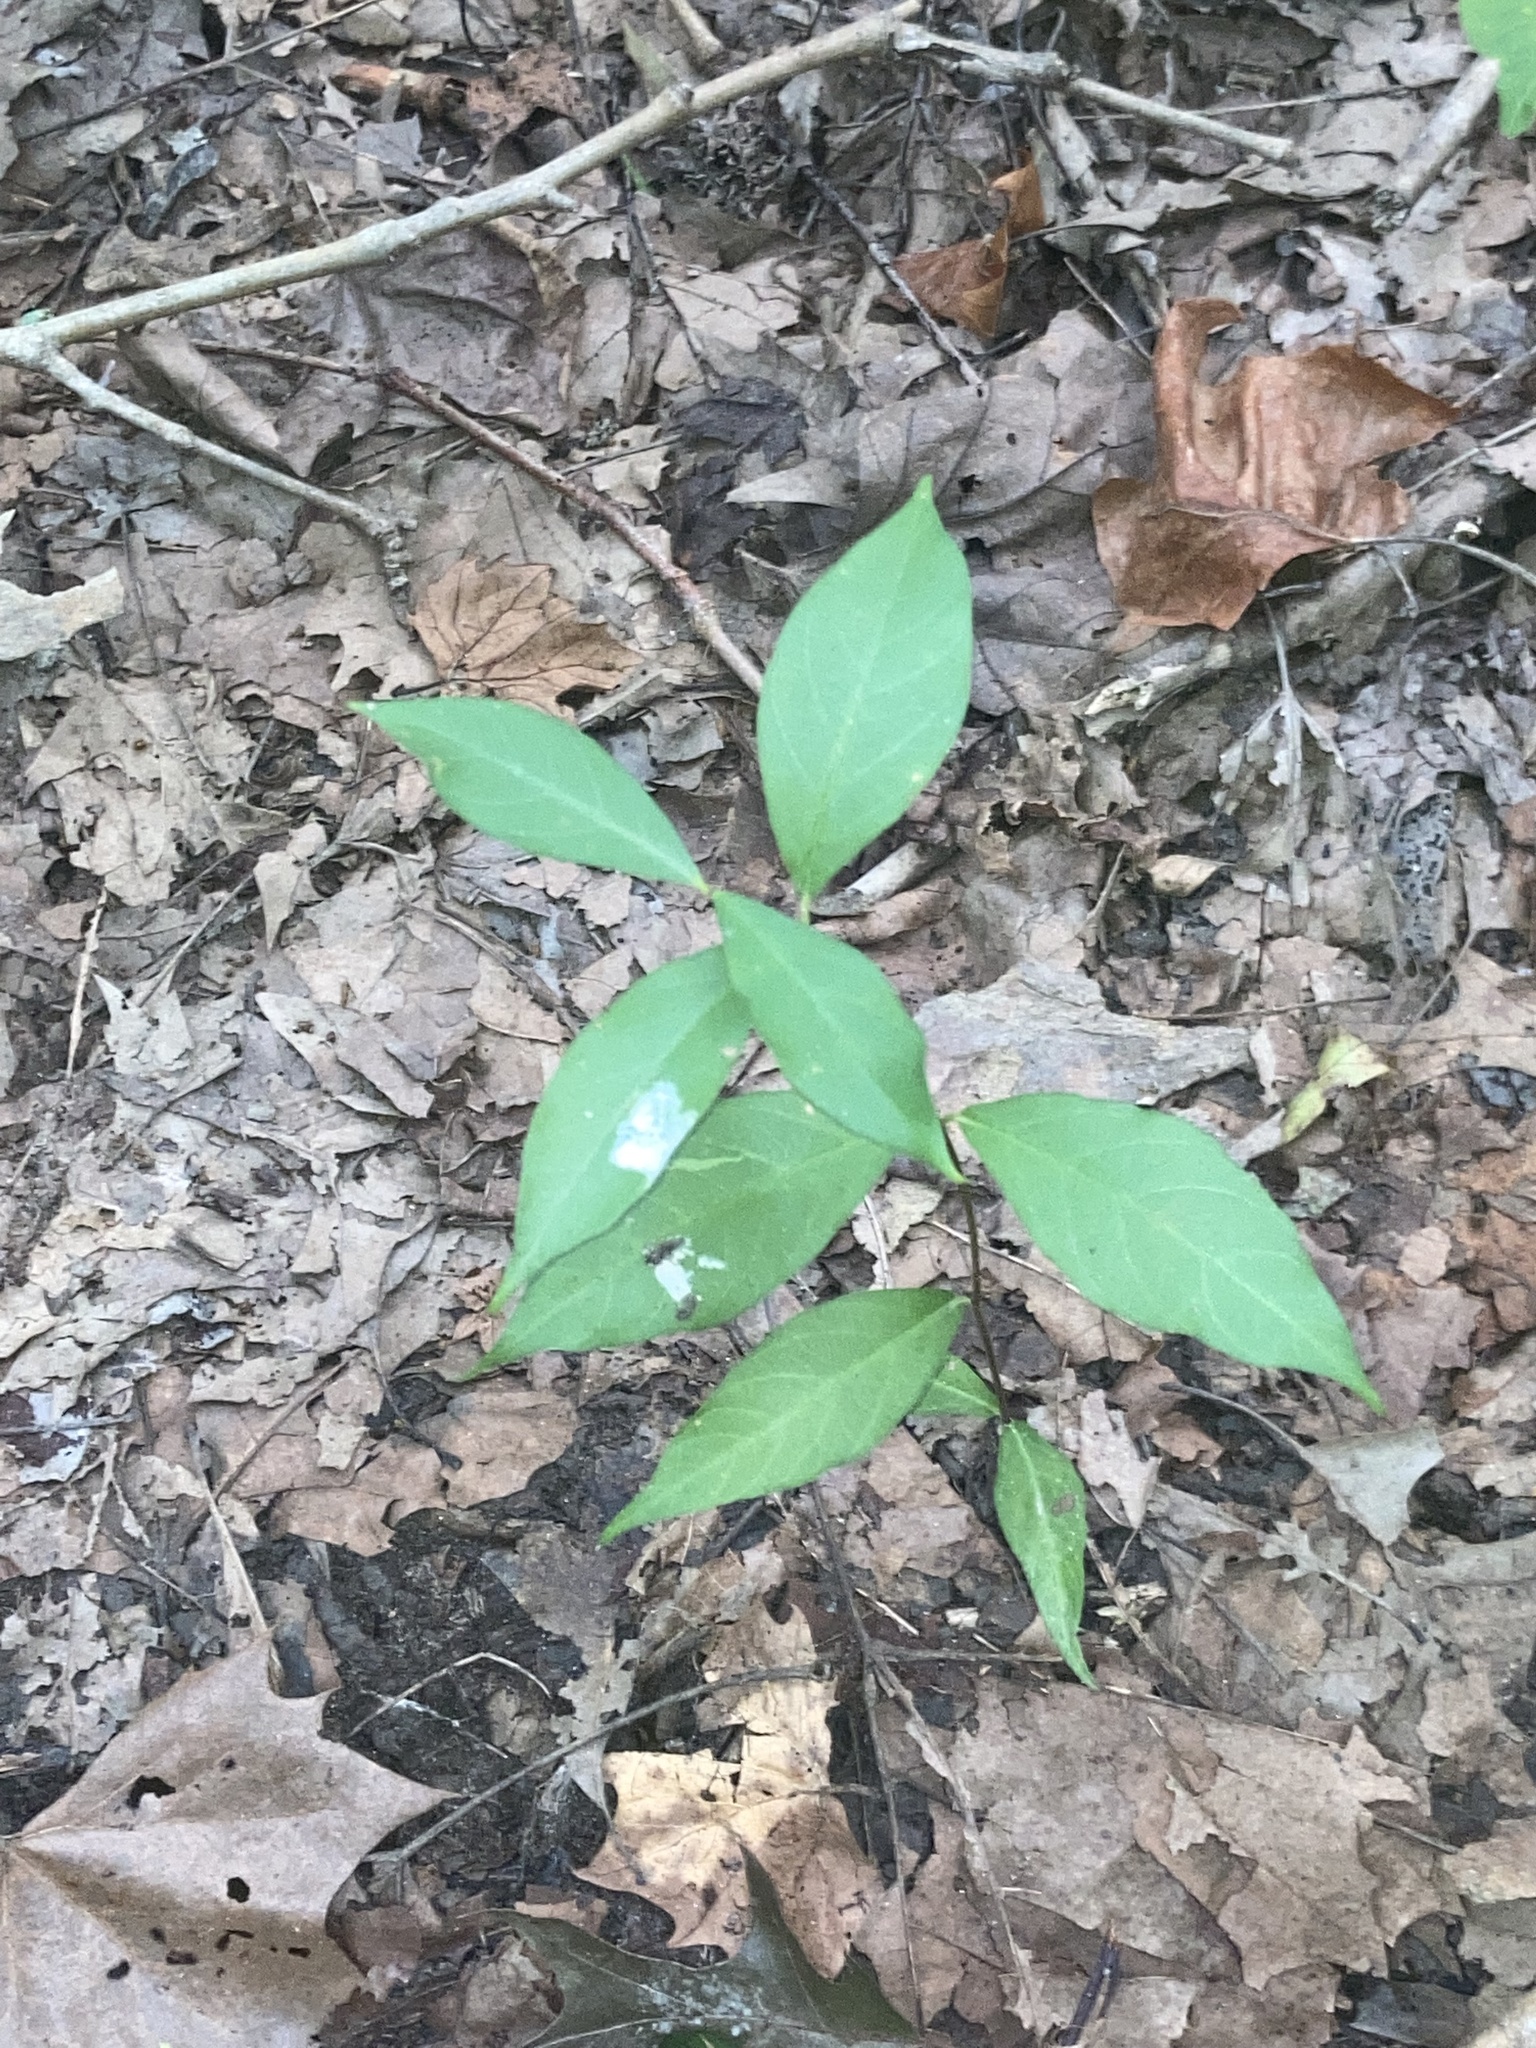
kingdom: Plantae
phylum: Tracheophyta
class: Magnoliopsida
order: Gentianales
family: Apocynaceae
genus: Thyrsanthella
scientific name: Thyrsanthella difformis
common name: Climbing dogbane
